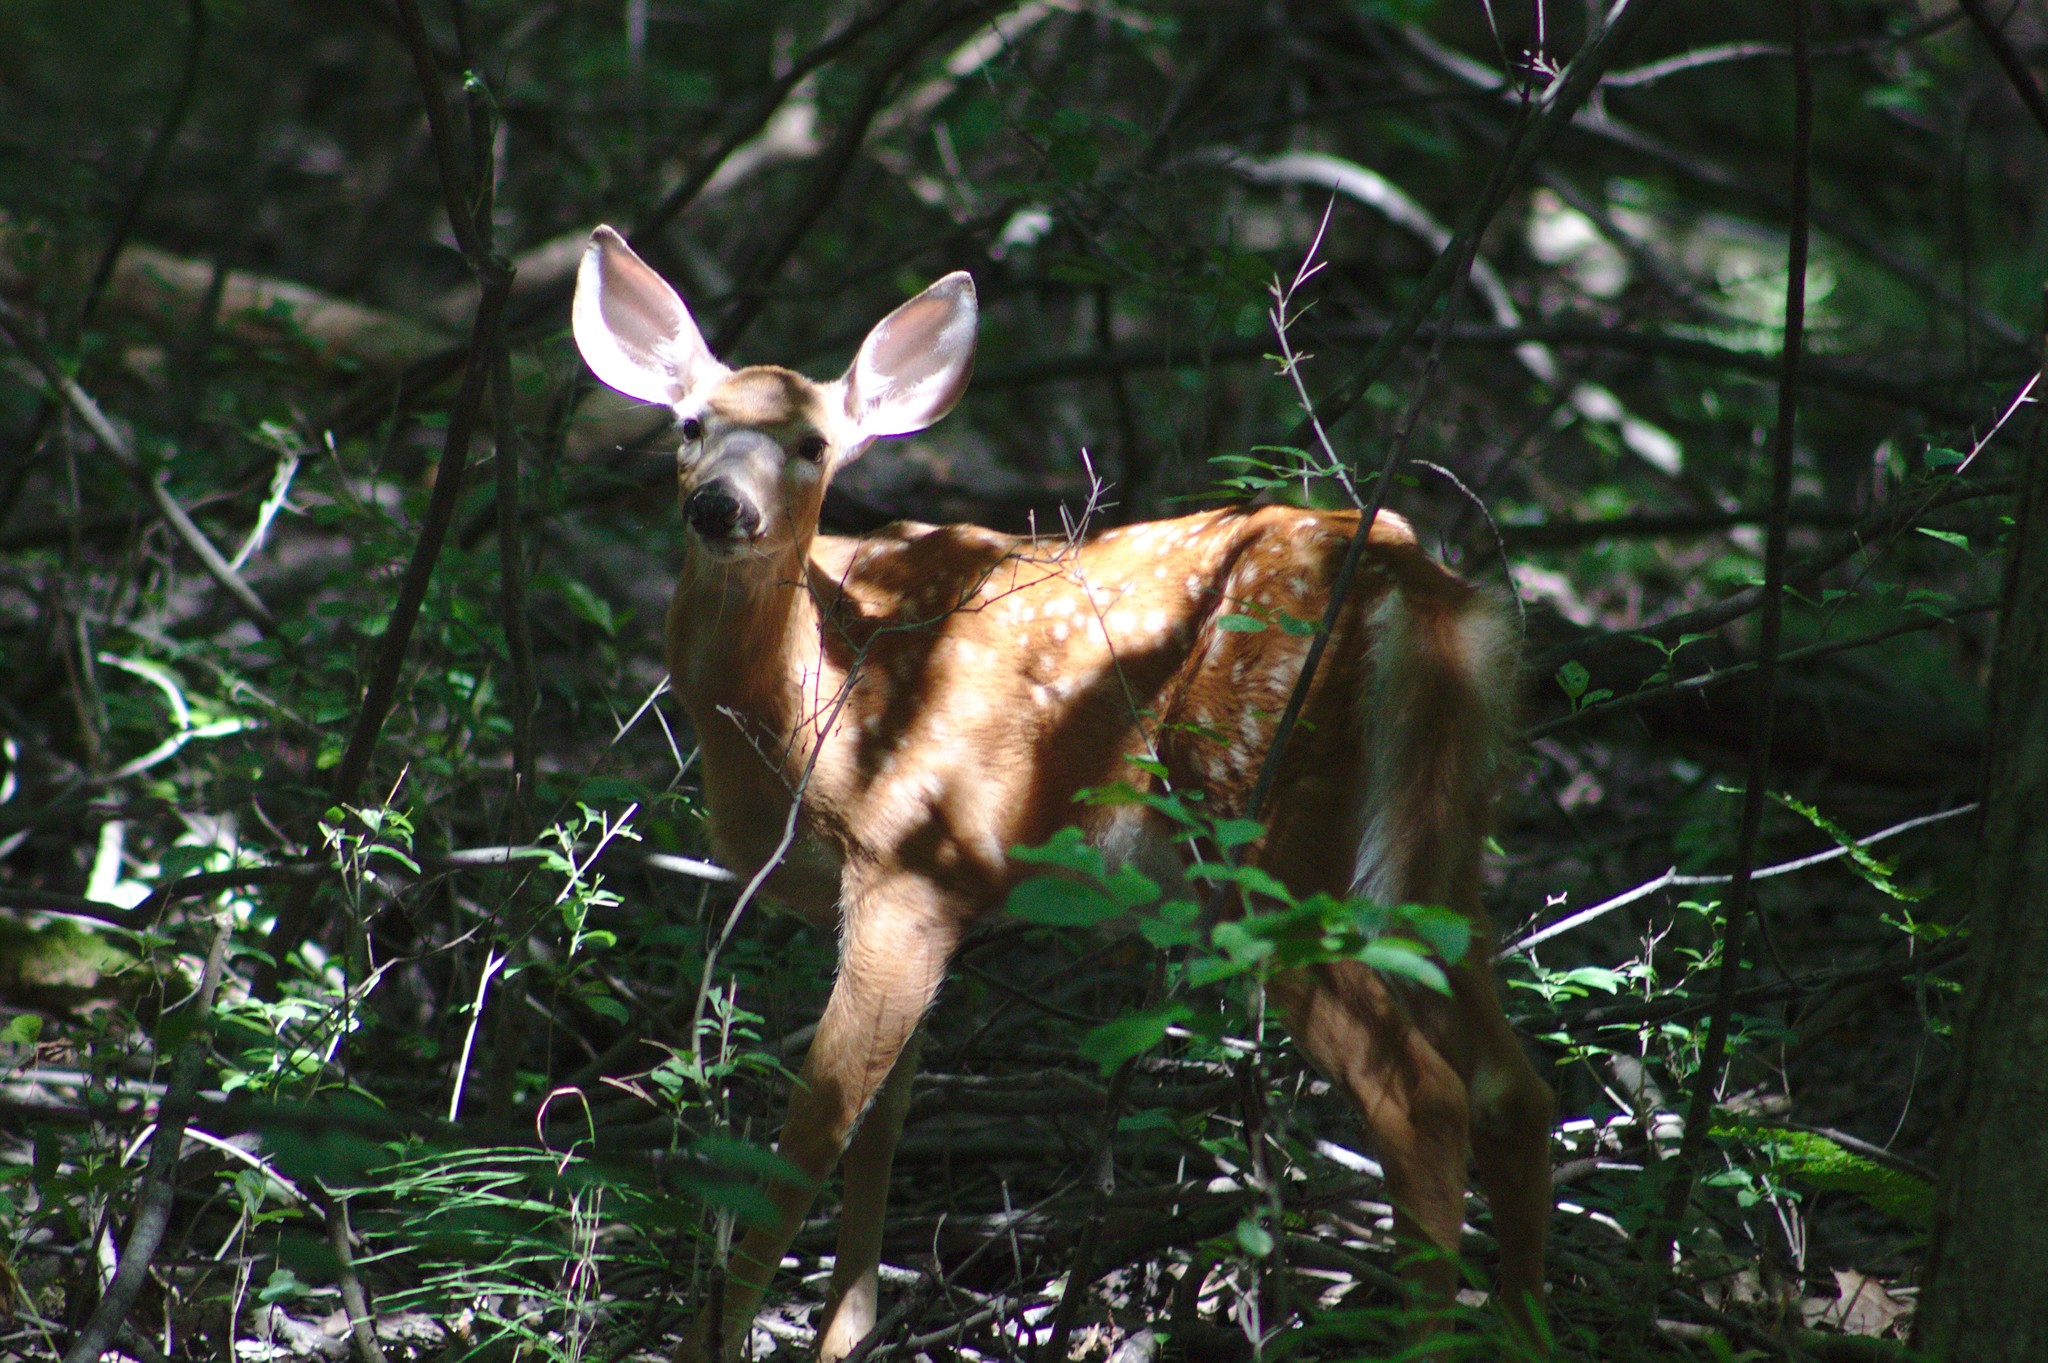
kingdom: Animalia
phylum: Chordata
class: Mammalia
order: Artiodactyla
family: Cervidae
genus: Odocoileus
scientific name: Odocoileus virginianus
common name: White-tailed deer
